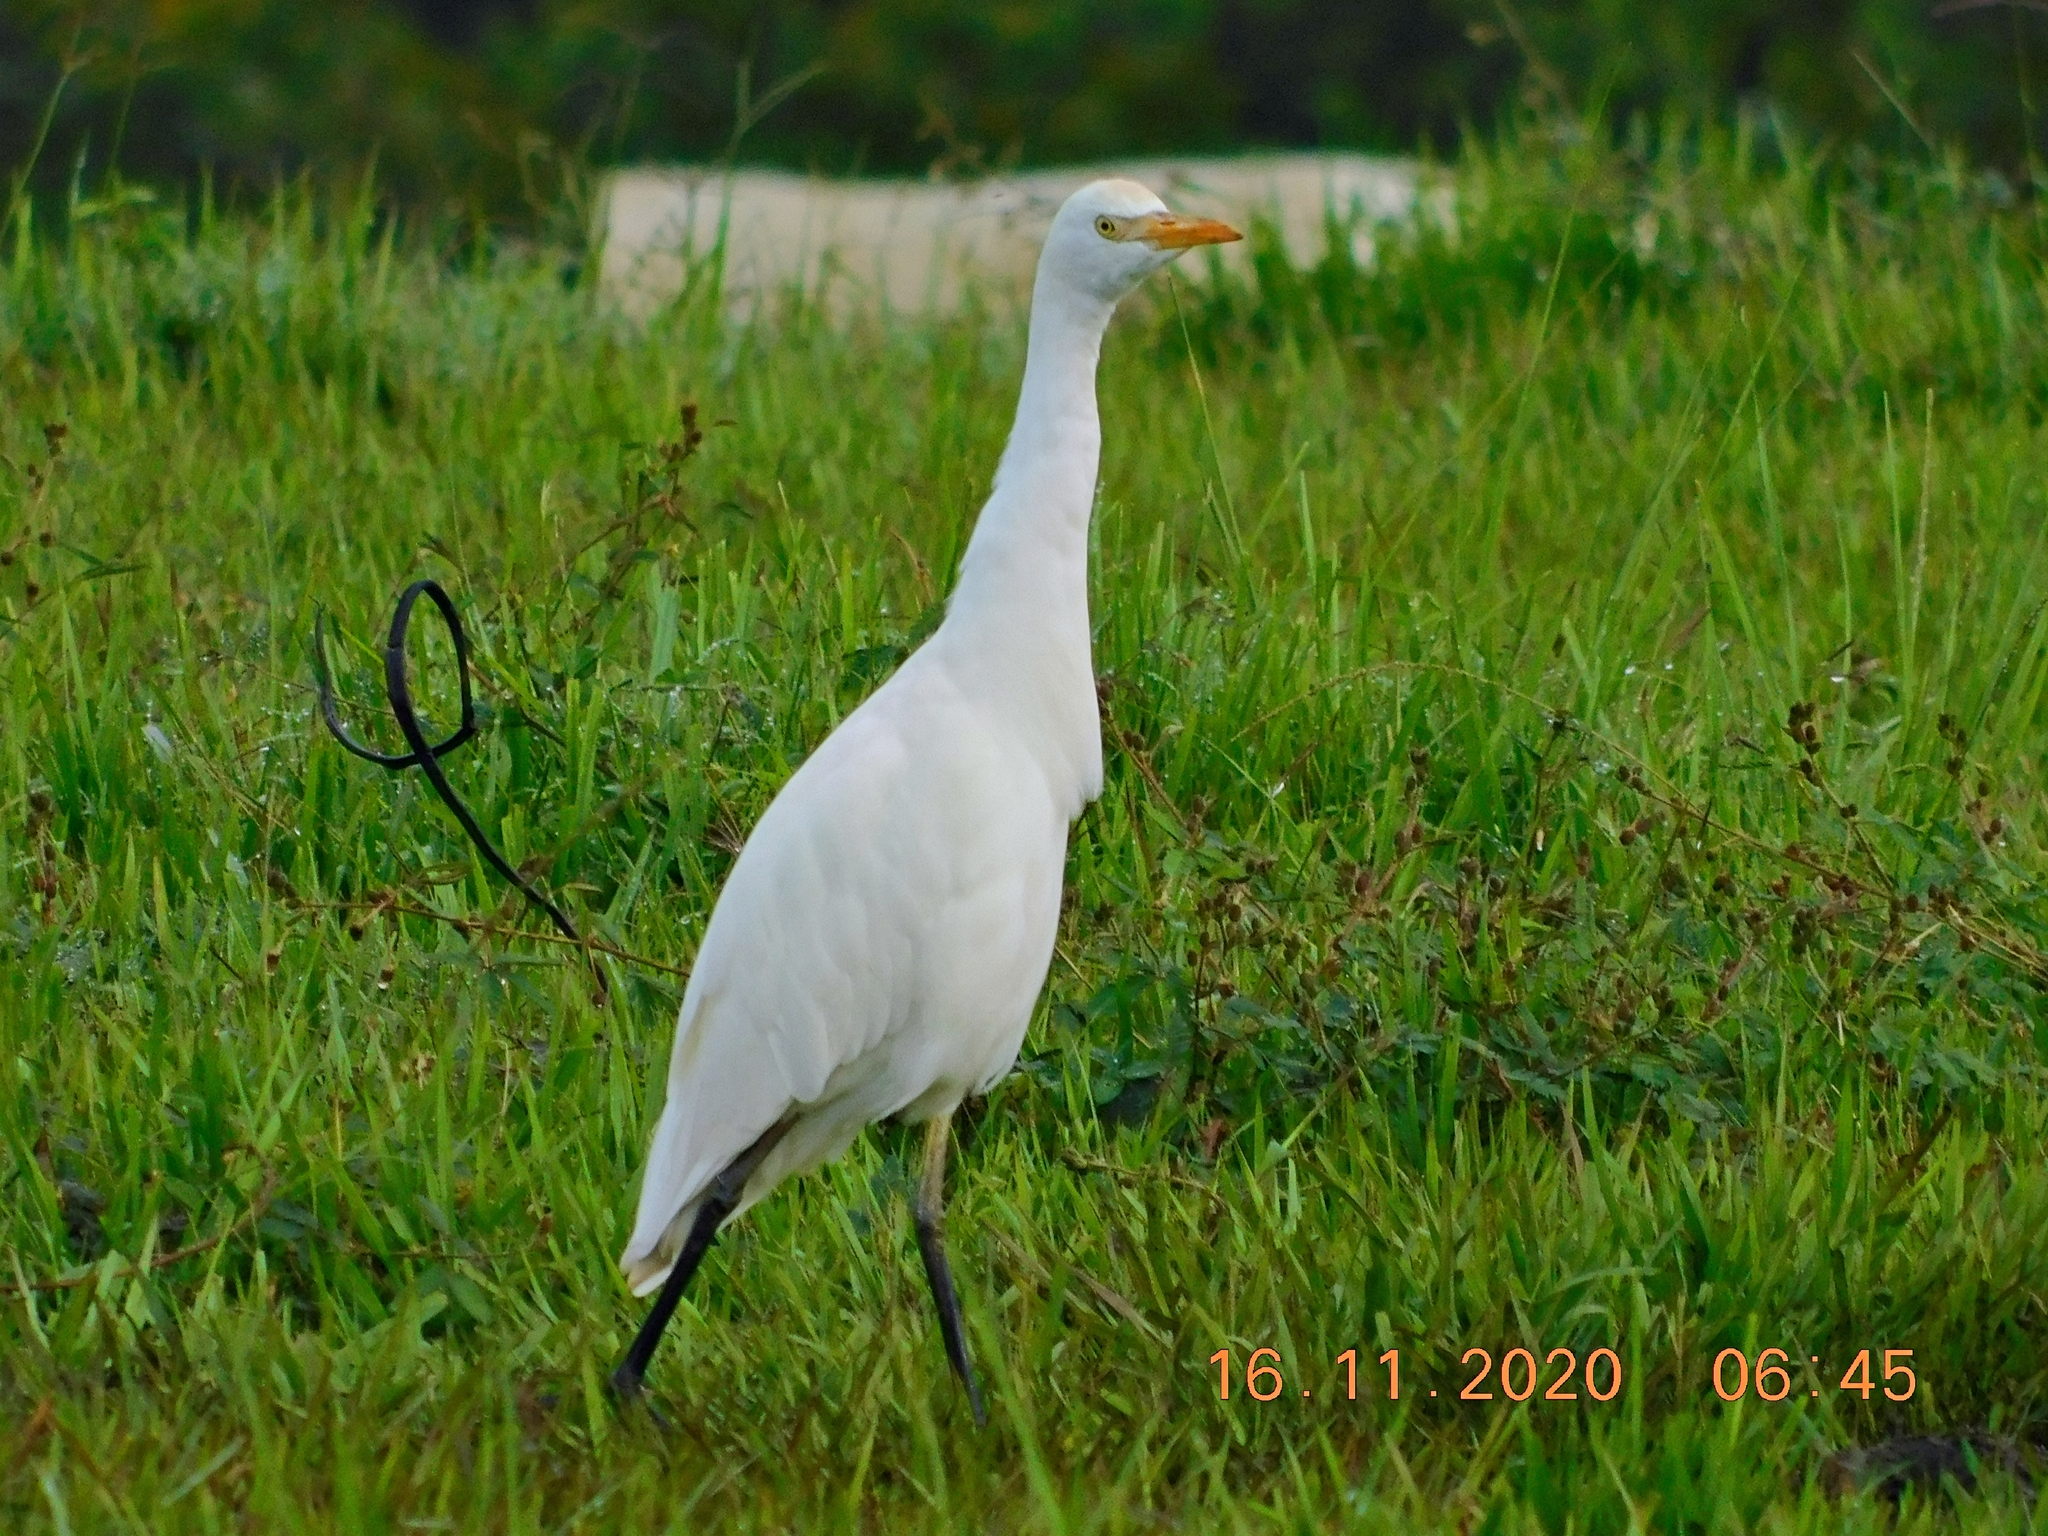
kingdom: Animalia
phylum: Chordata
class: Aves
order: Pelecaniformes
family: Ardeidae
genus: Bubulcus
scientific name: Bubulcus ibis
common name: Cattle egret
